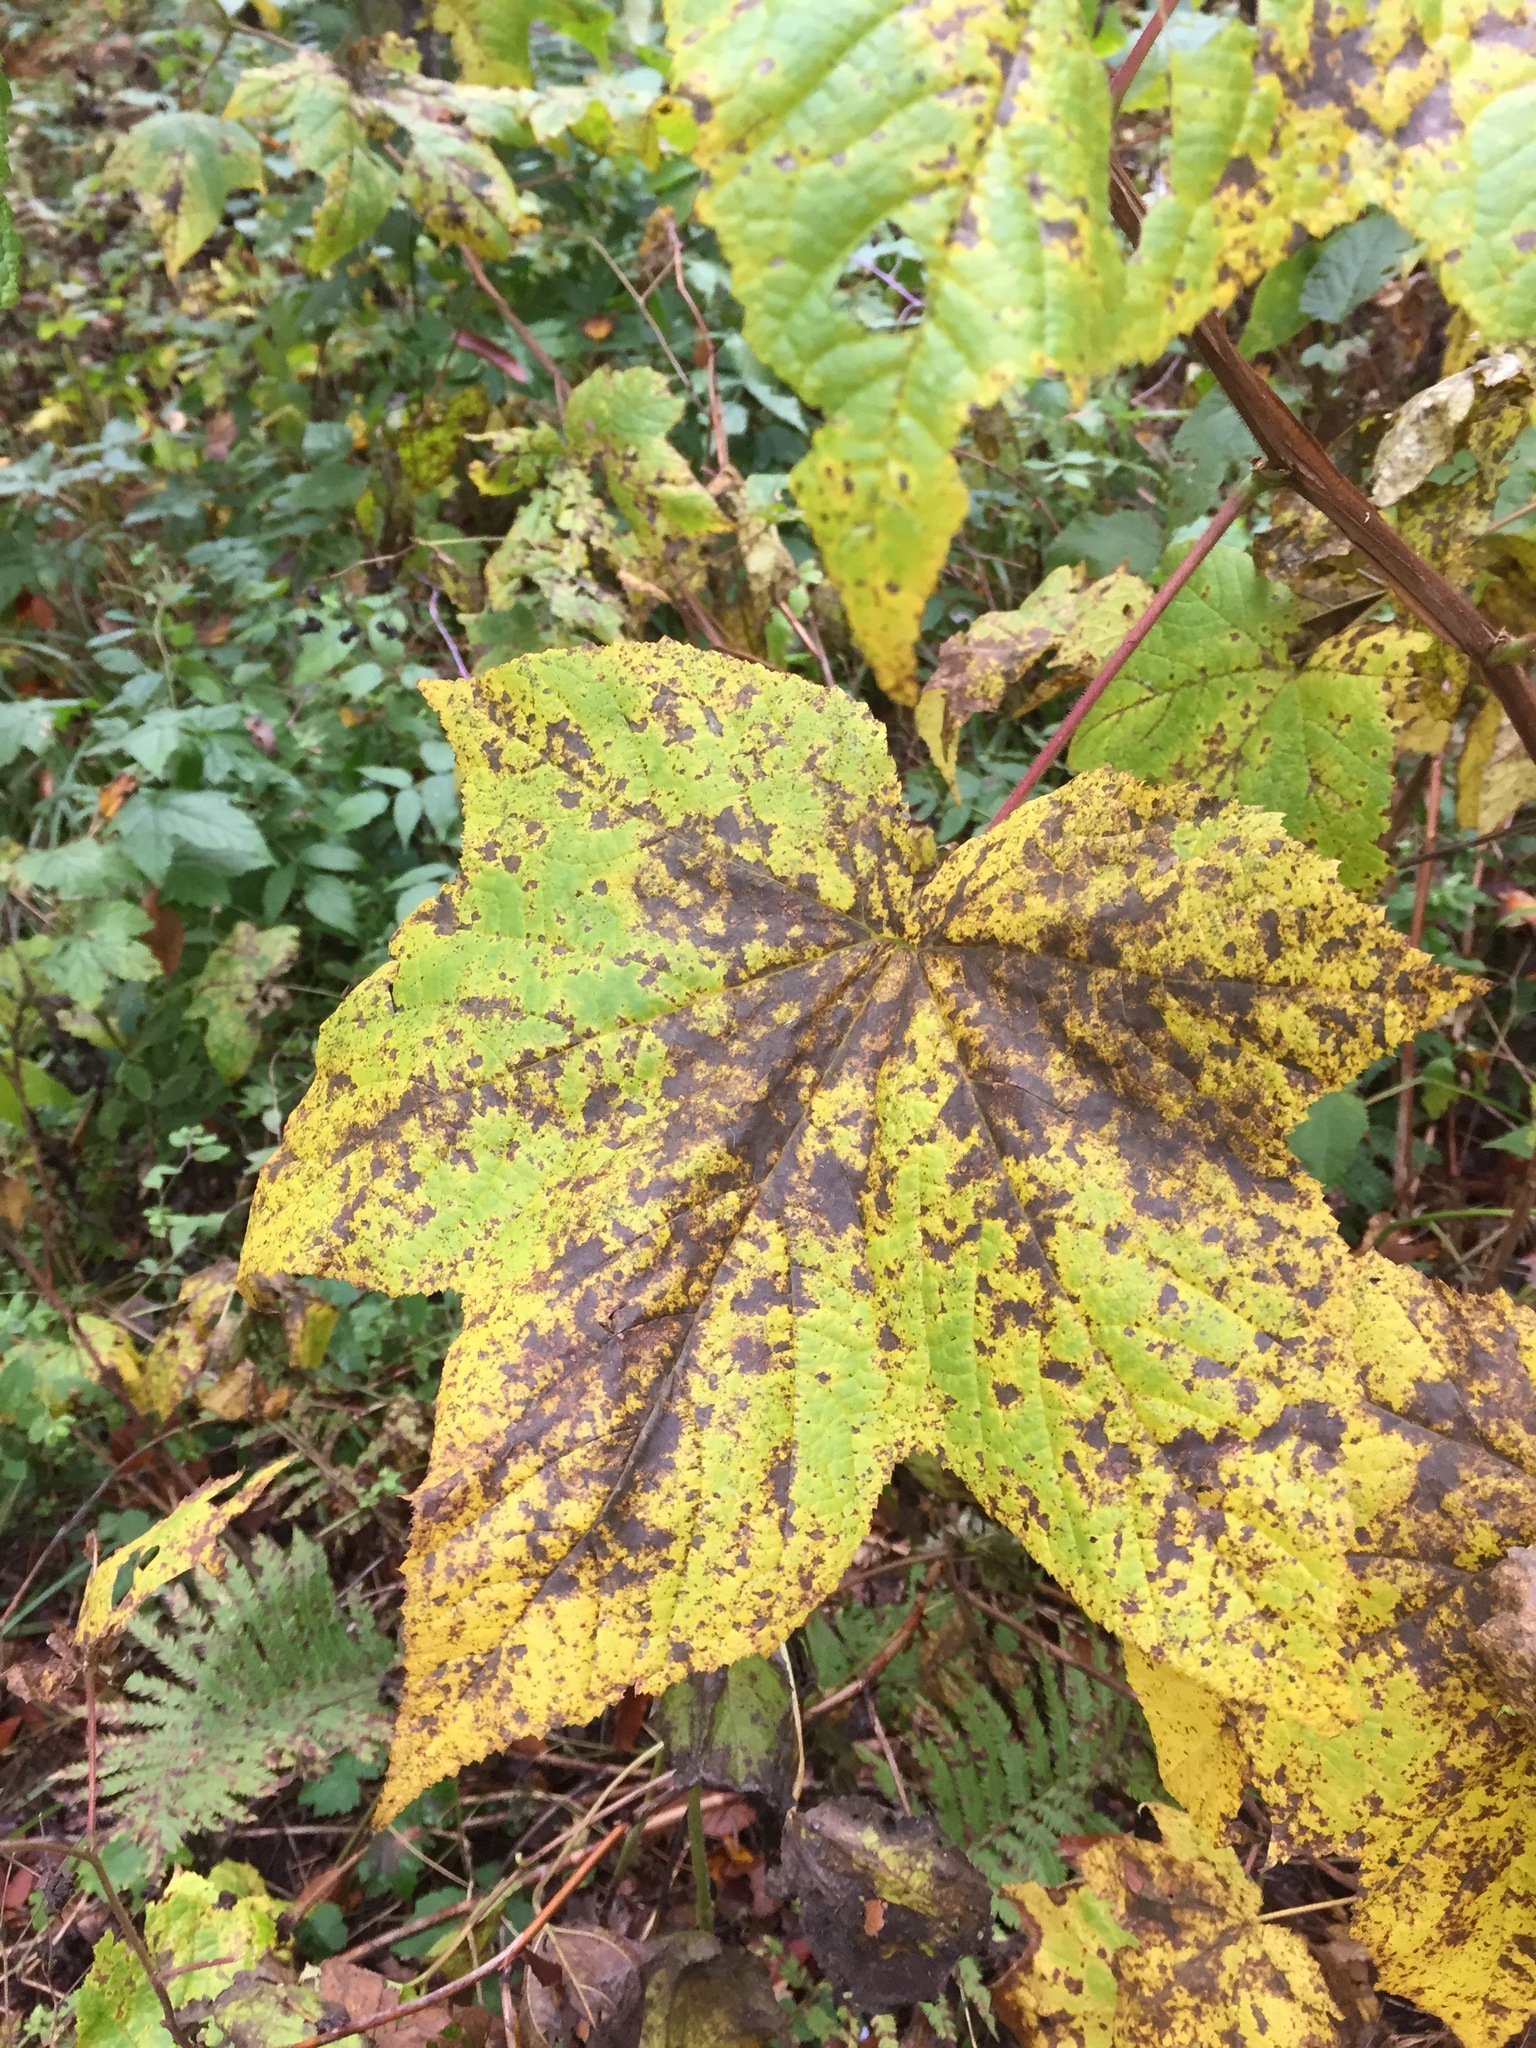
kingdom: Plantae
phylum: Tracheophyta
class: Magnoliopsida
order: Rosales
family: Rosaceae
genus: Rubus
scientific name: Rubus odoratus
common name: Purple-flowered raspberry
